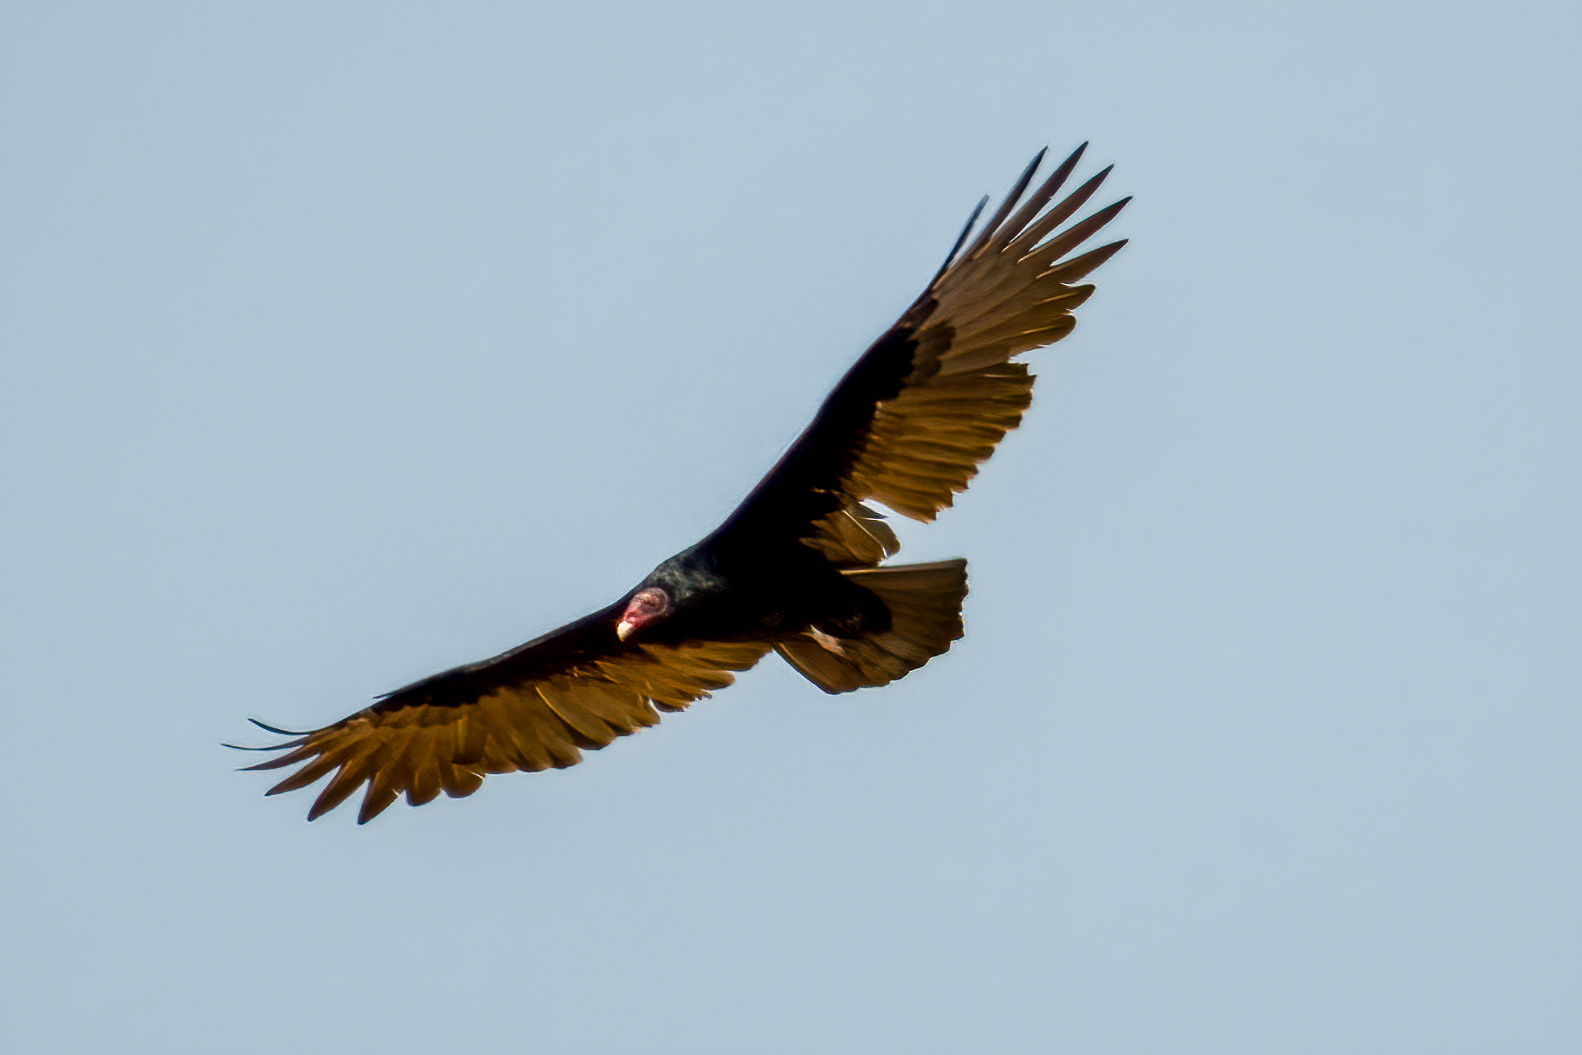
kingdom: Animalia
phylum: Chordata
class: Aves
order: Accipitriformes
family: Cathartidae
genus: Cathartes
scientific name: Cathartes aura
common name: Turkey vulture
